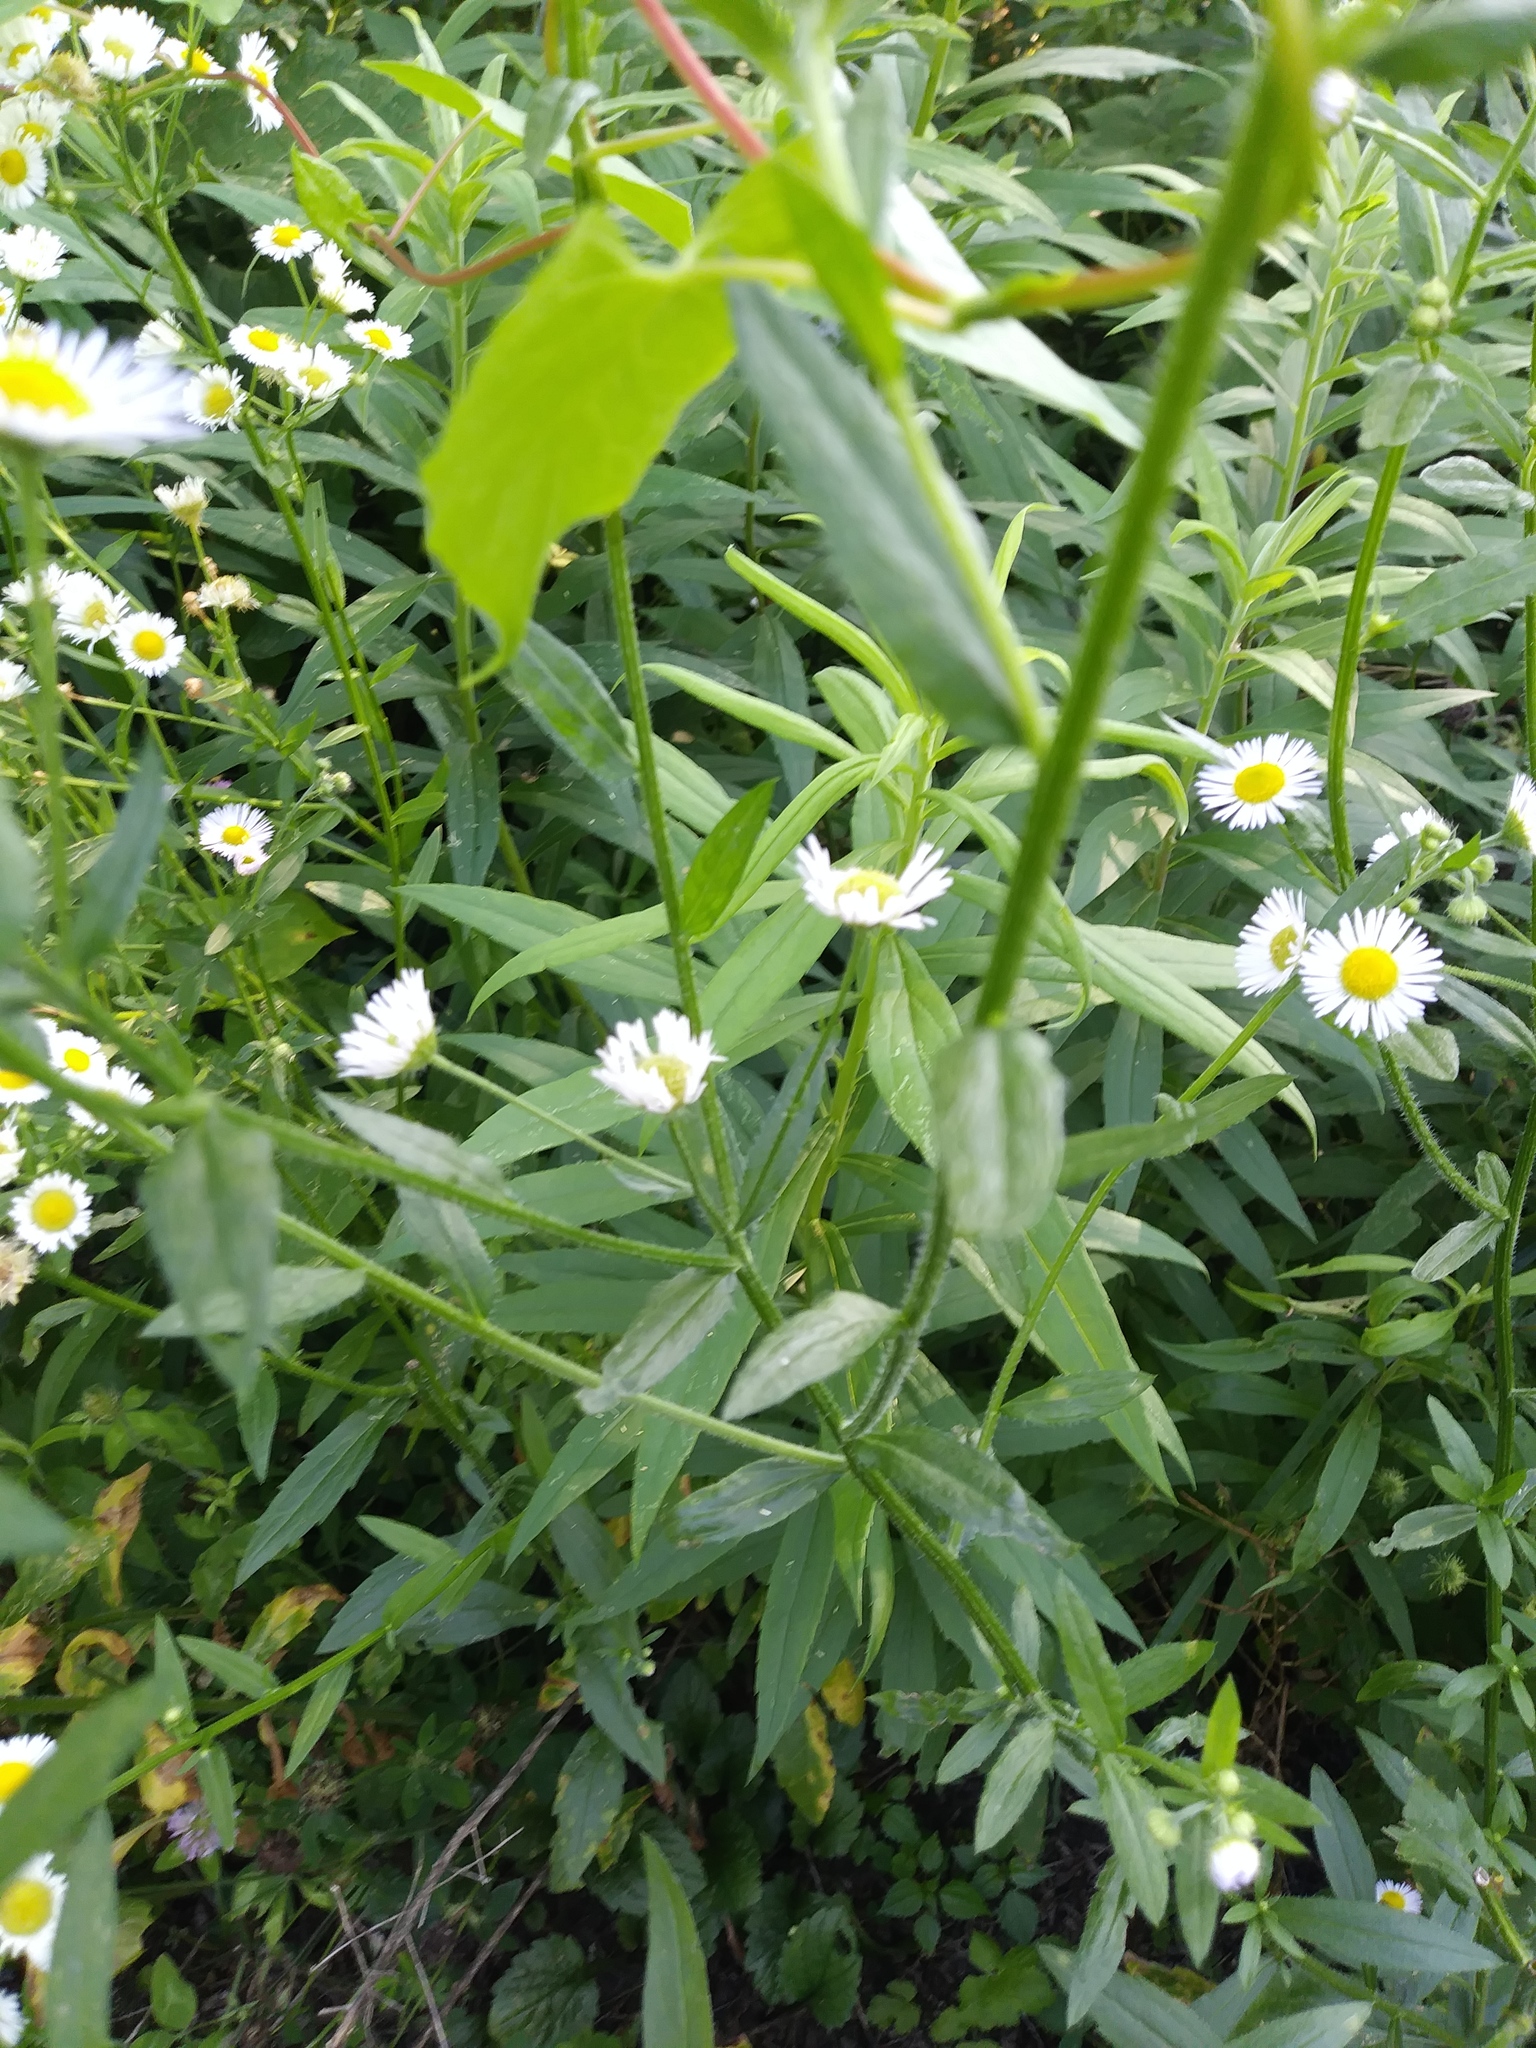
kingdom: Plantae
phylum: Tracheophyta
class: Magnoliopsida
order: Asterales
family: Asteraceae
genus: Erigeron
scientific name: Erigeron annuus
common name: Tall fleabane
